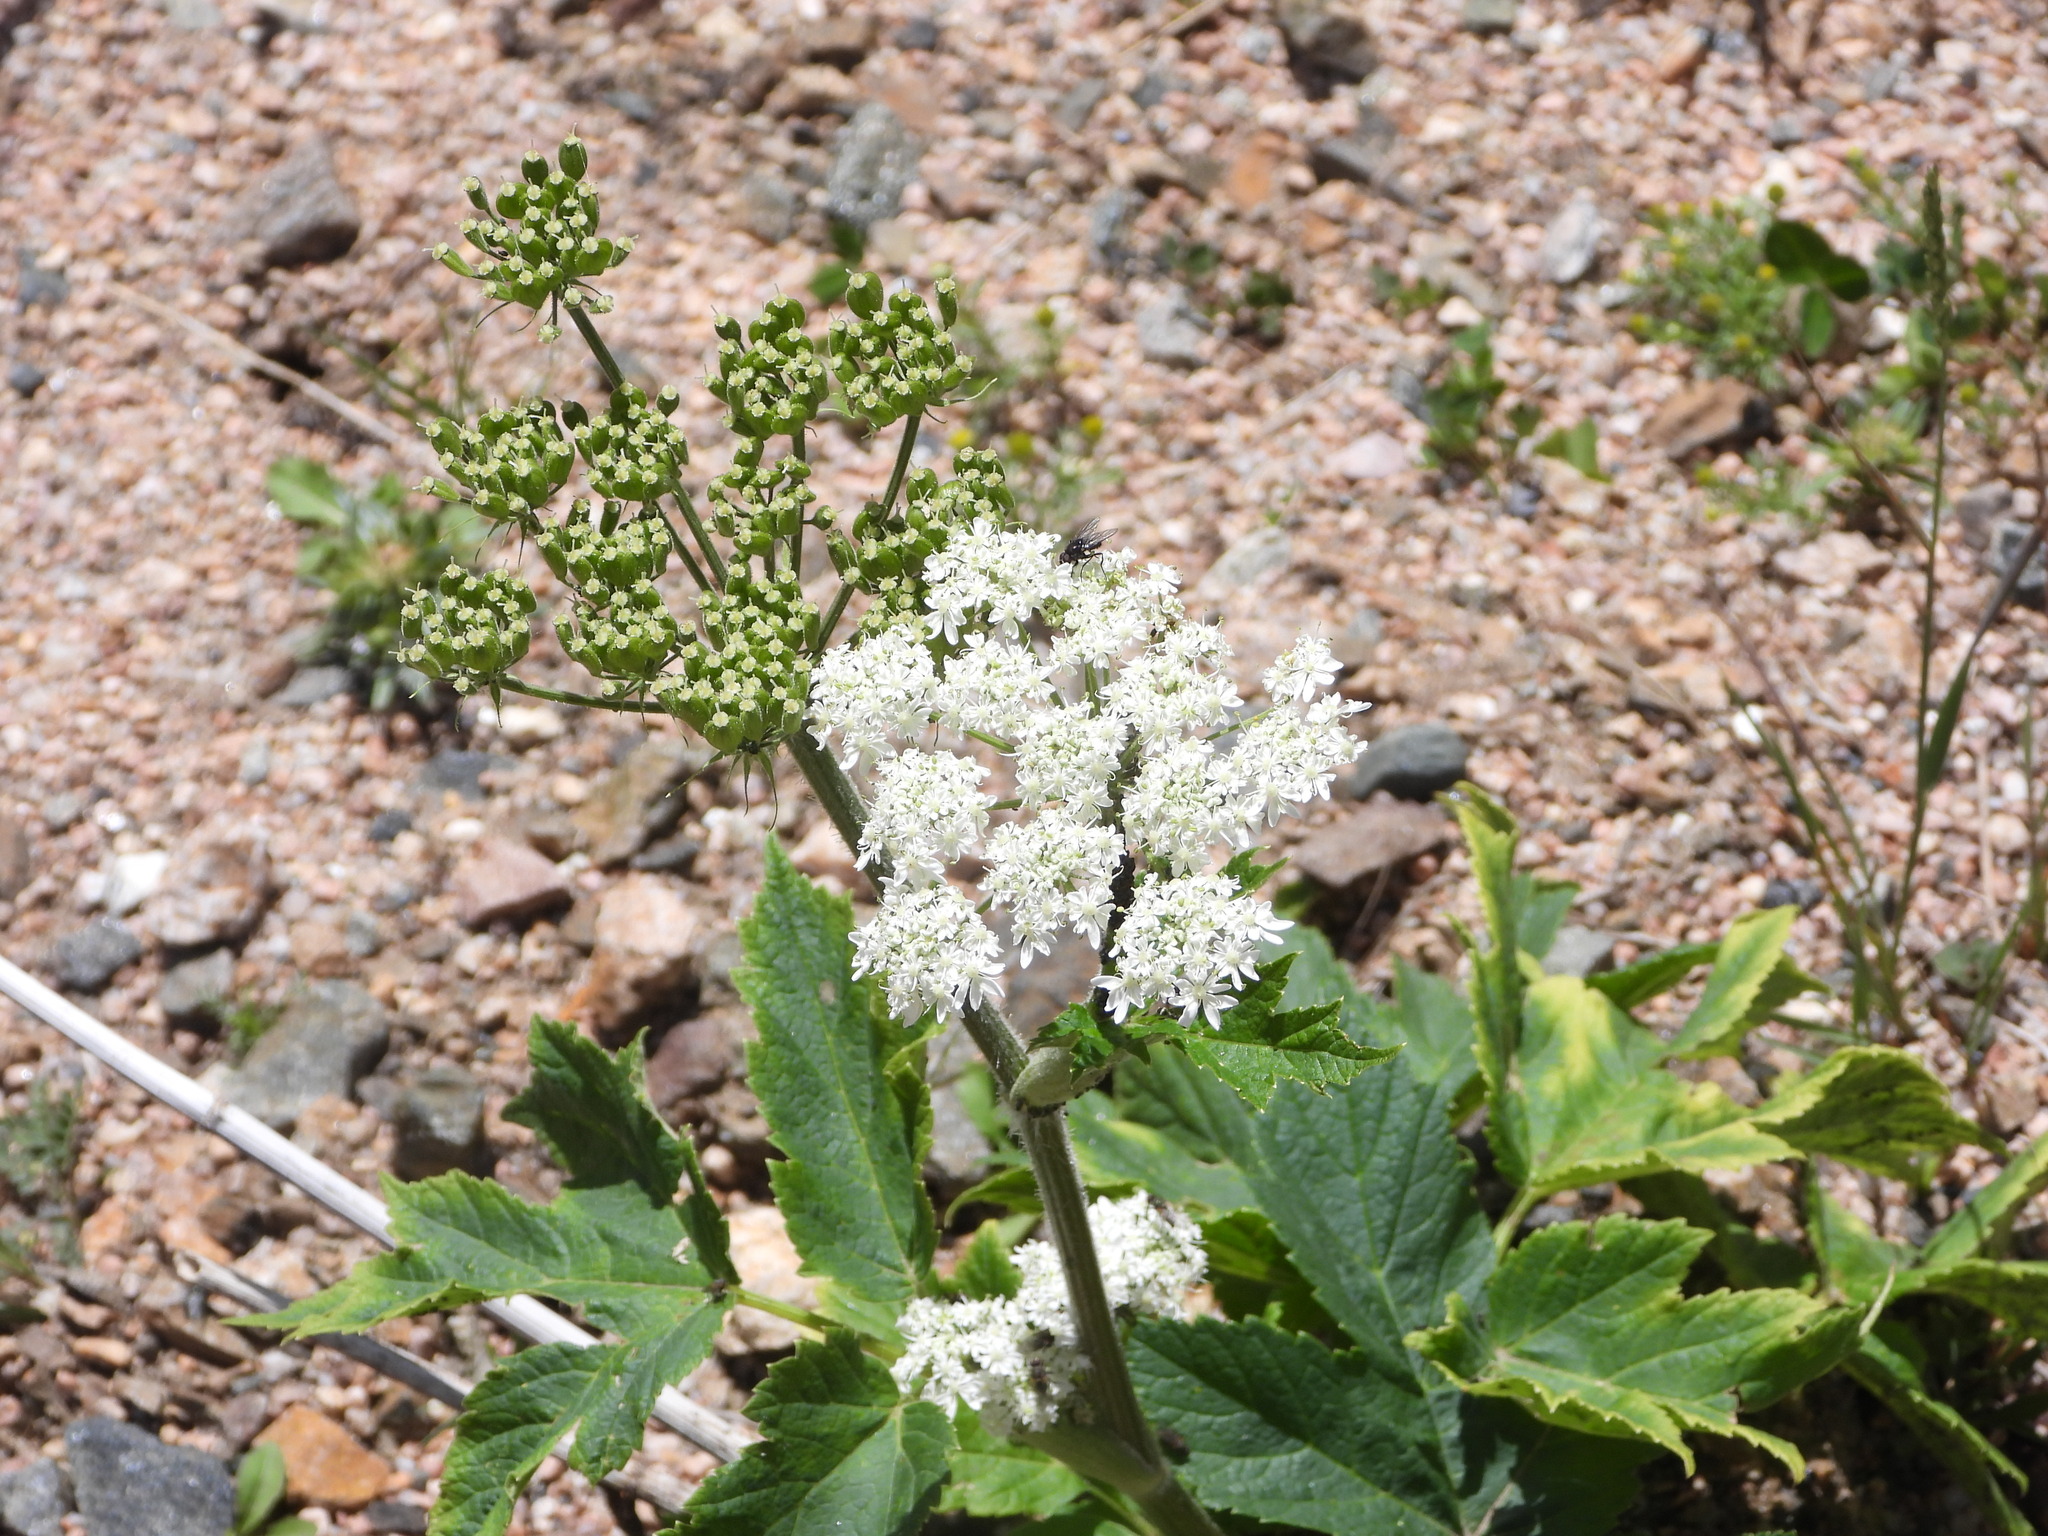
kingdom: Plantae
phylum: Tracheophyta
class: Magnoliopsida
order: Apiales
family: Apiaceae
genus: Heracleum
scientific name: Heracleum maximum
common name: American cow parsnip
